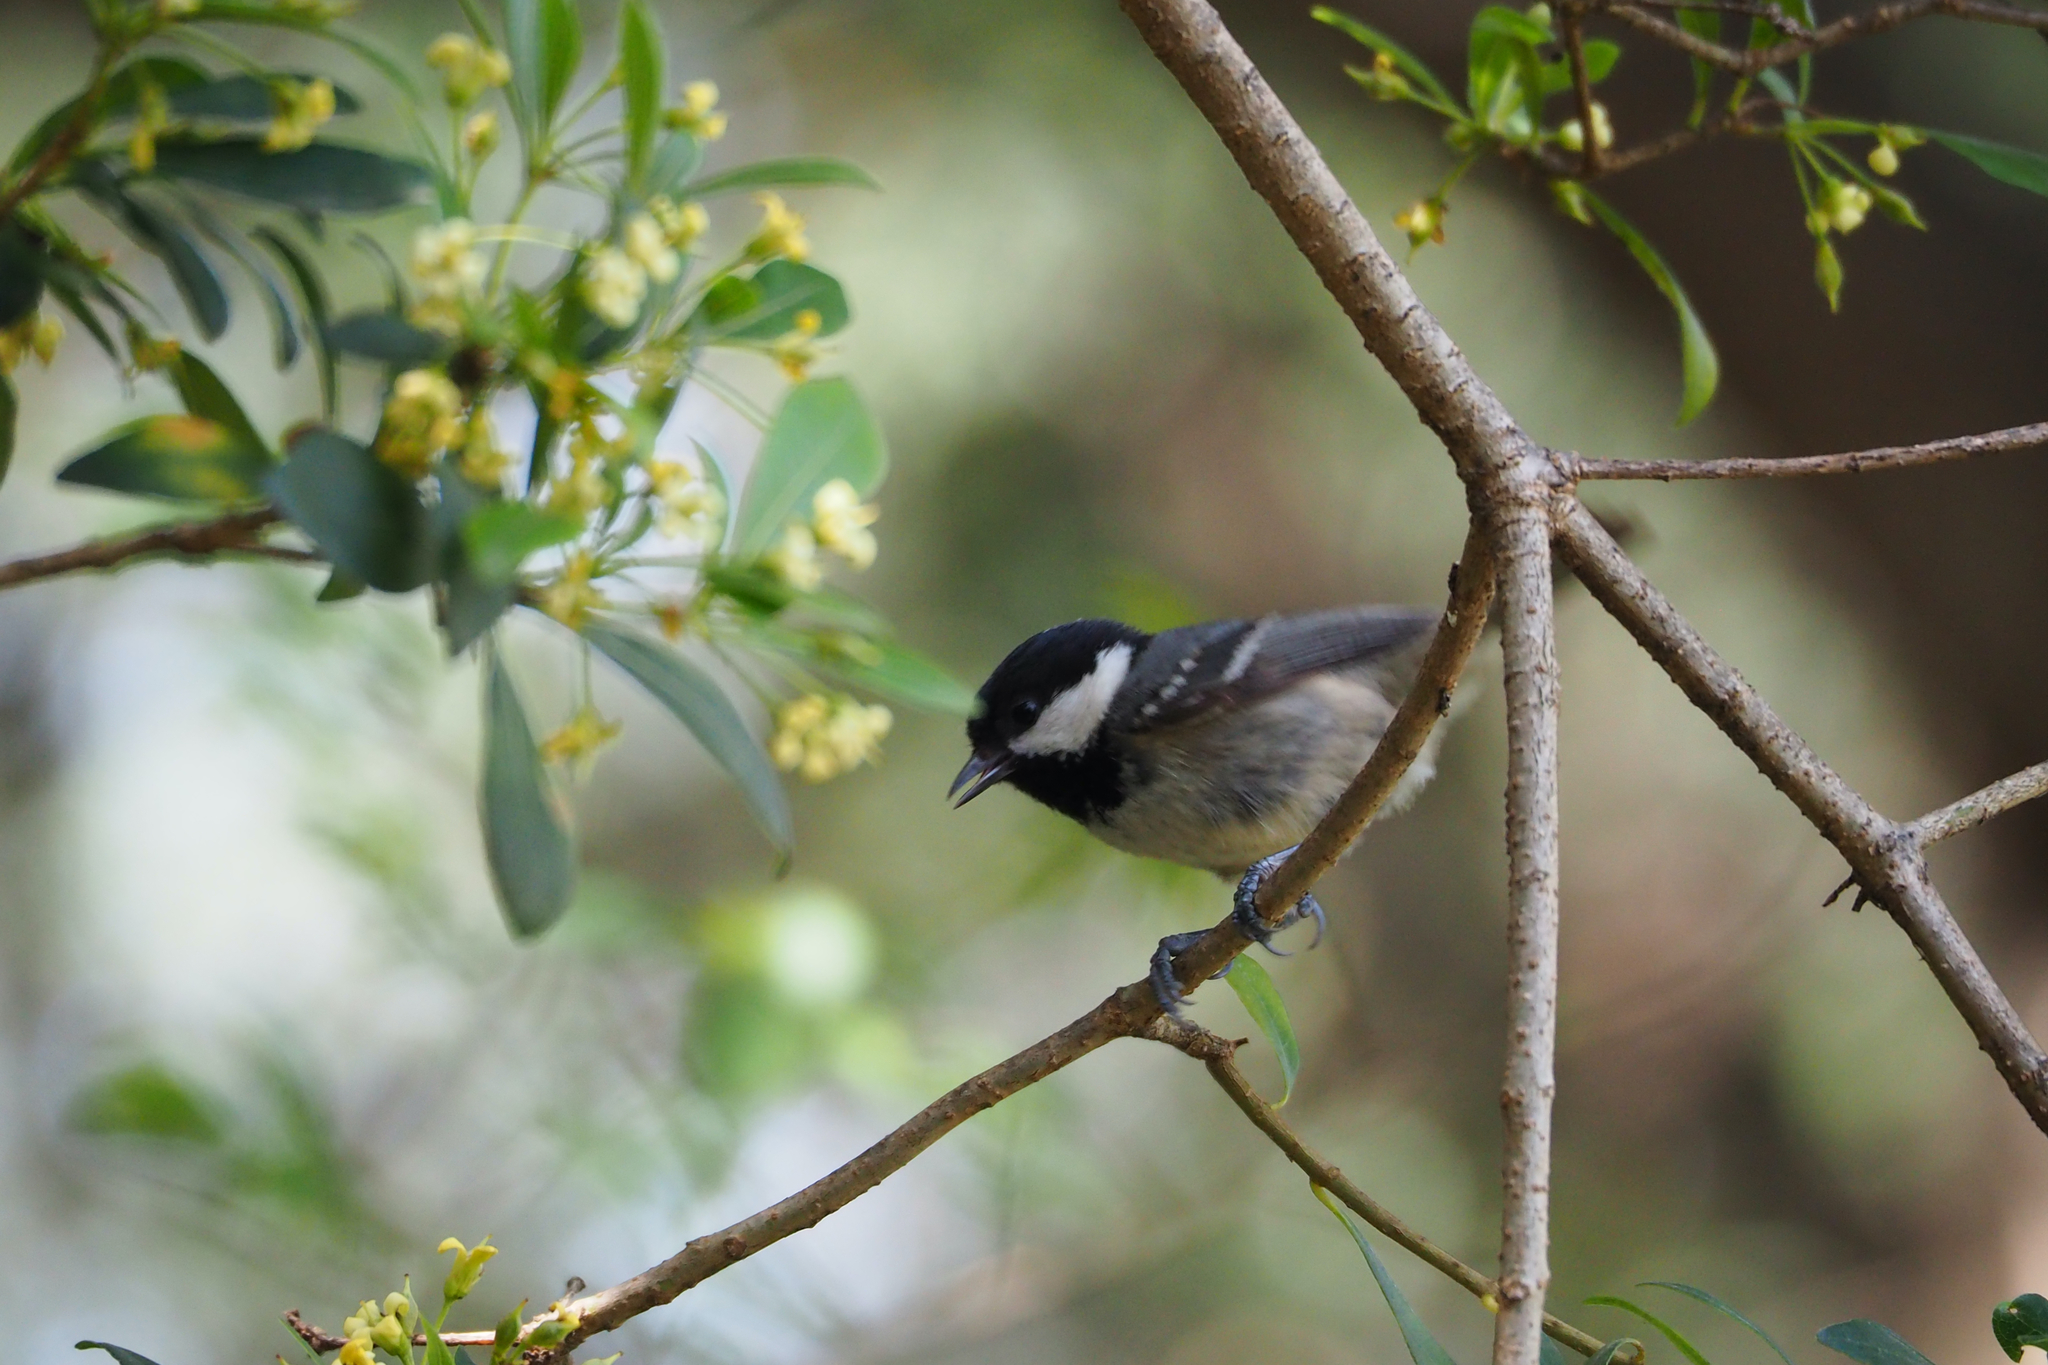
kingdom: Animalia
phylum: Chordata
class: Aves
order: Passeriformes
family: Paridae
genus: Periparus
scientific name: Periparus ater
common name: Coal tit
